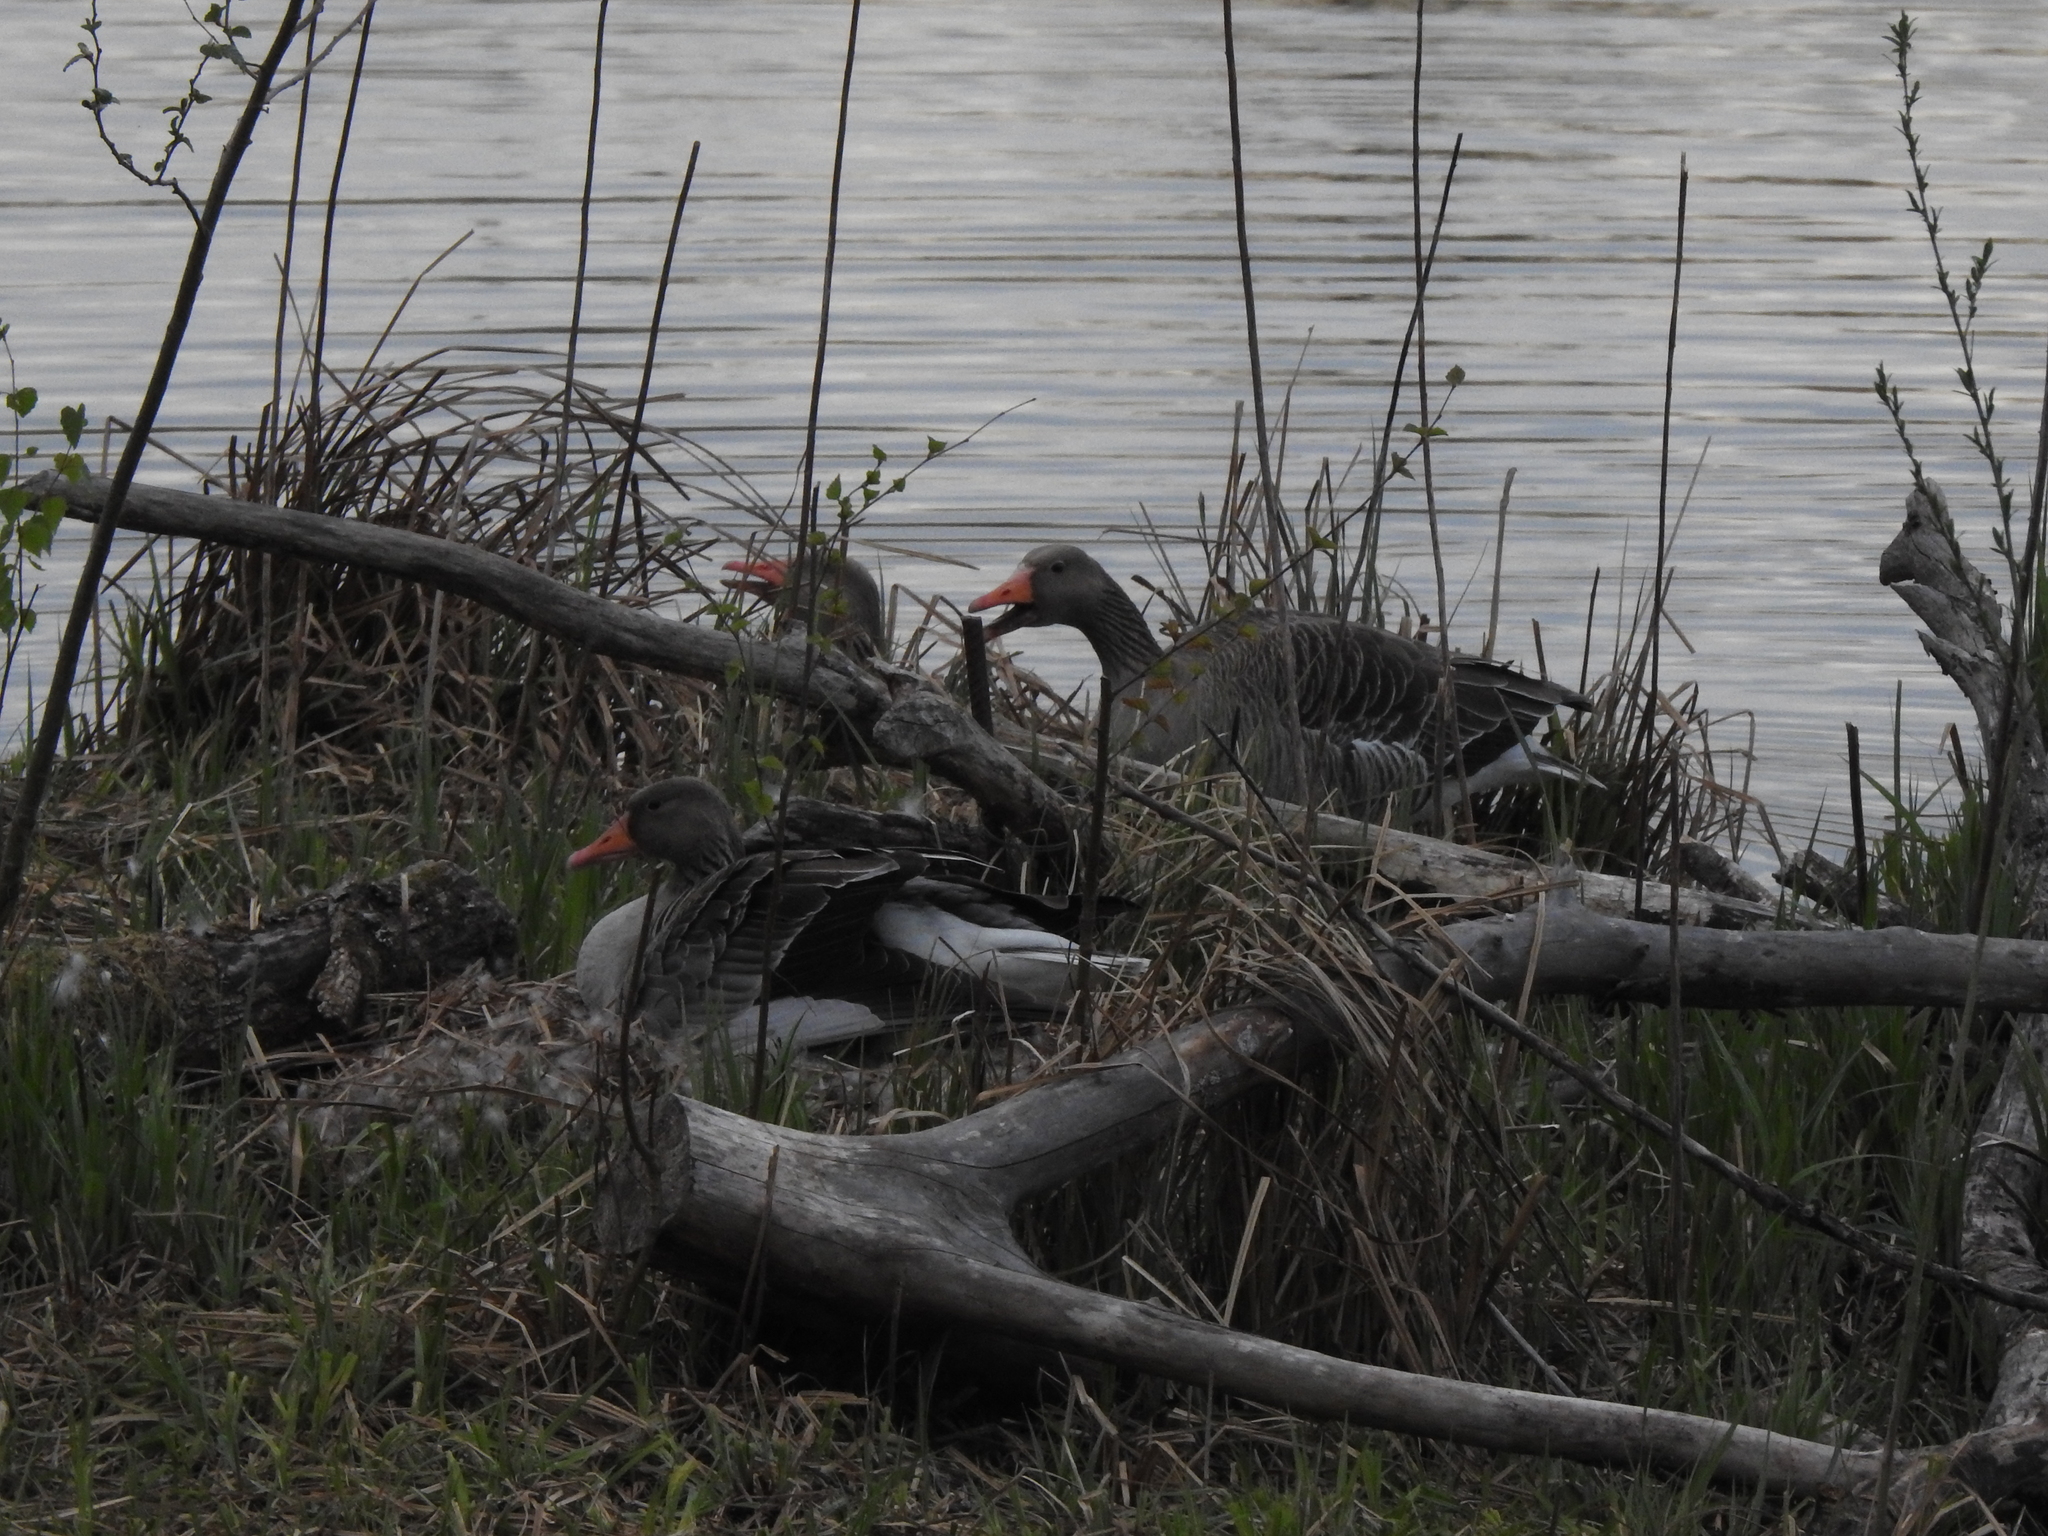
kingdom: Animalia
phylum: Chordata
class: Aves
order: Anseriformes
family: Anatidae
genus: Anser
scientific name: Anser anser
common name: Greylag goose
